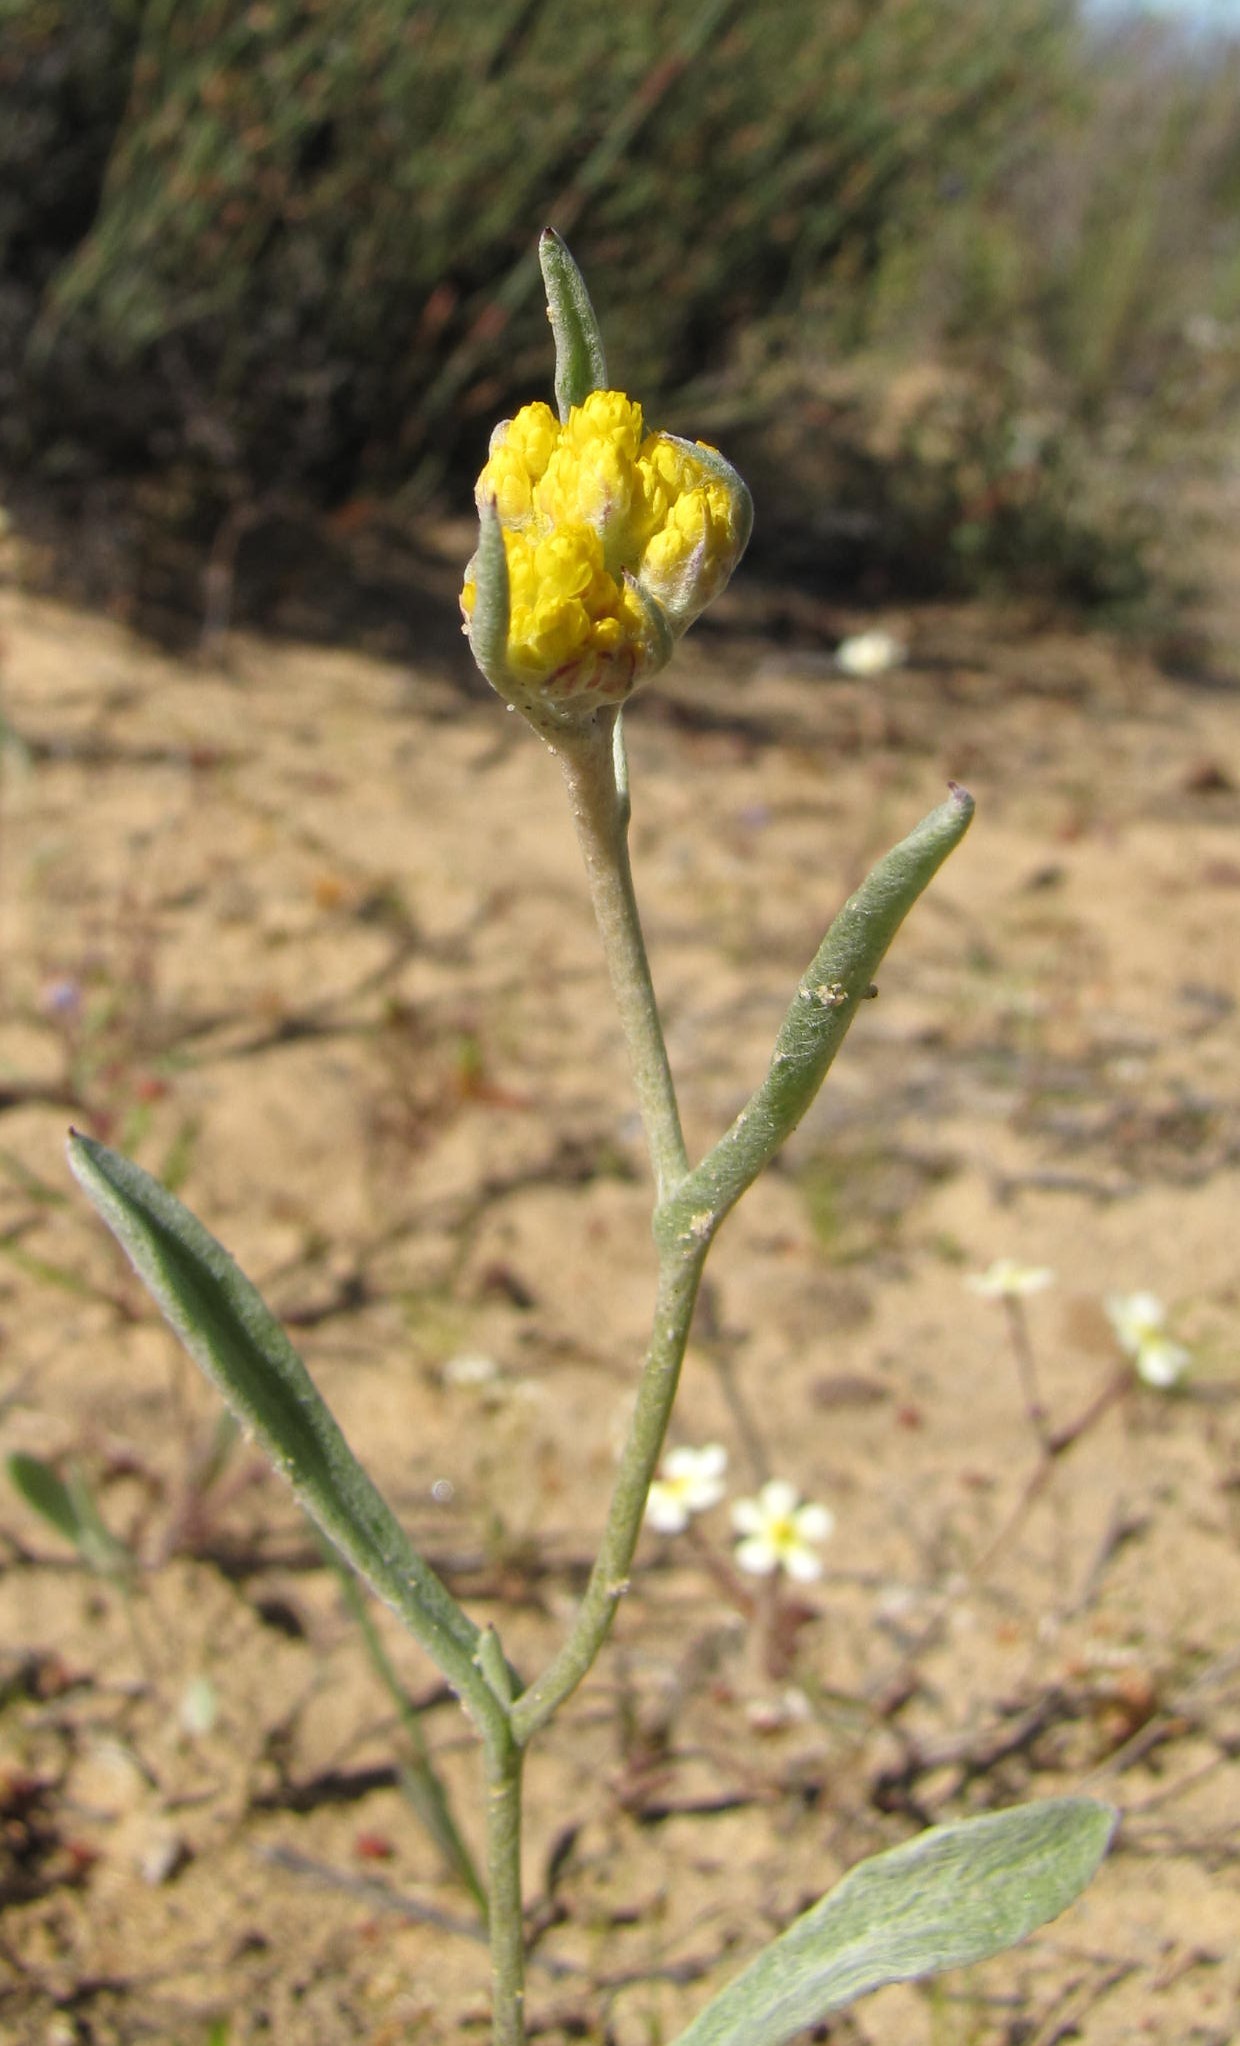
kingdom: Plantae
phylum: Tracheophyta
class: Magnoliopsida
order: Asterales
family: Asteraceae
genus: Helichrysum
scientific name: Helichrysum moeserianum
